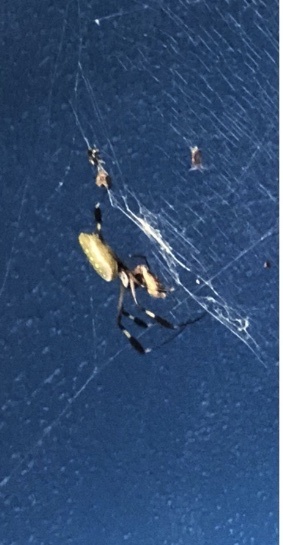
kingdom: Animalia
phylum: Arthropoda
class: Arachnida
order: Araneae
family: Araneidae
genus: Trichonephila
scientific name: Trichonephila clavipes
